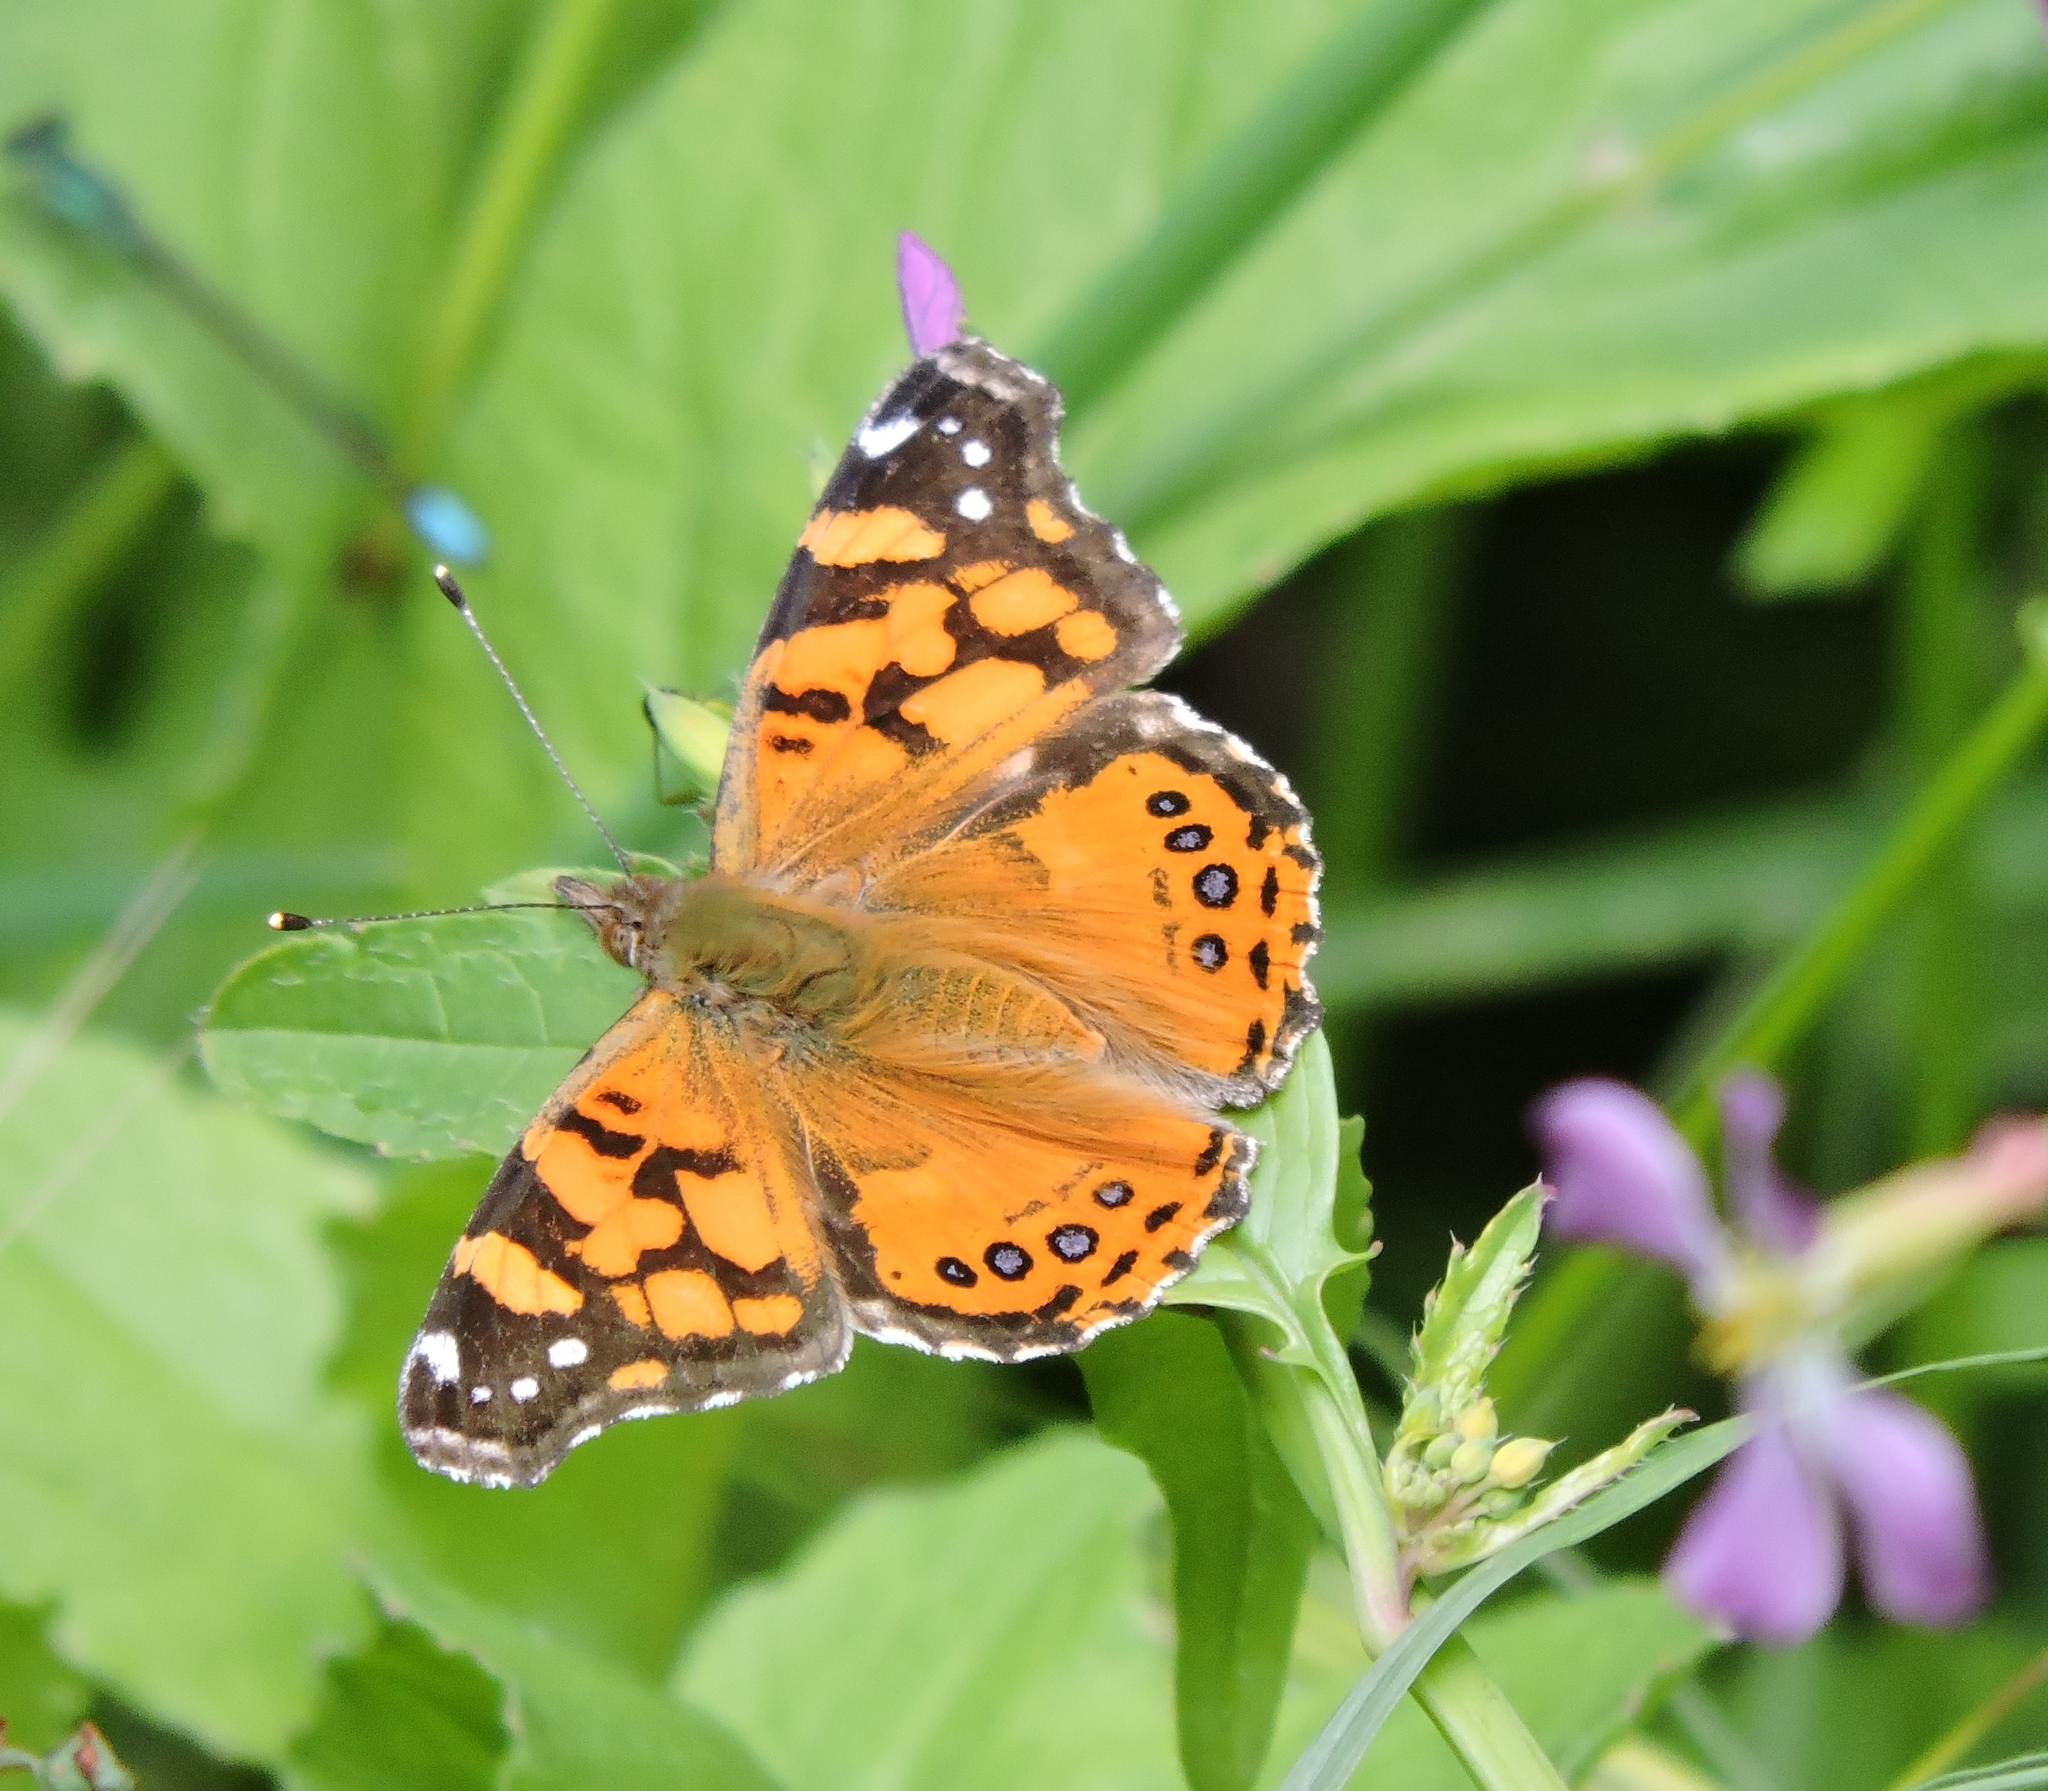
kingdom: Animalia
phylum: Arthropoda
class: Insecta
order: Lepidoptera
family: Nymphalidae
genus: Vanessa
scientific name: Vanessa annabella
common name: West coast lady
